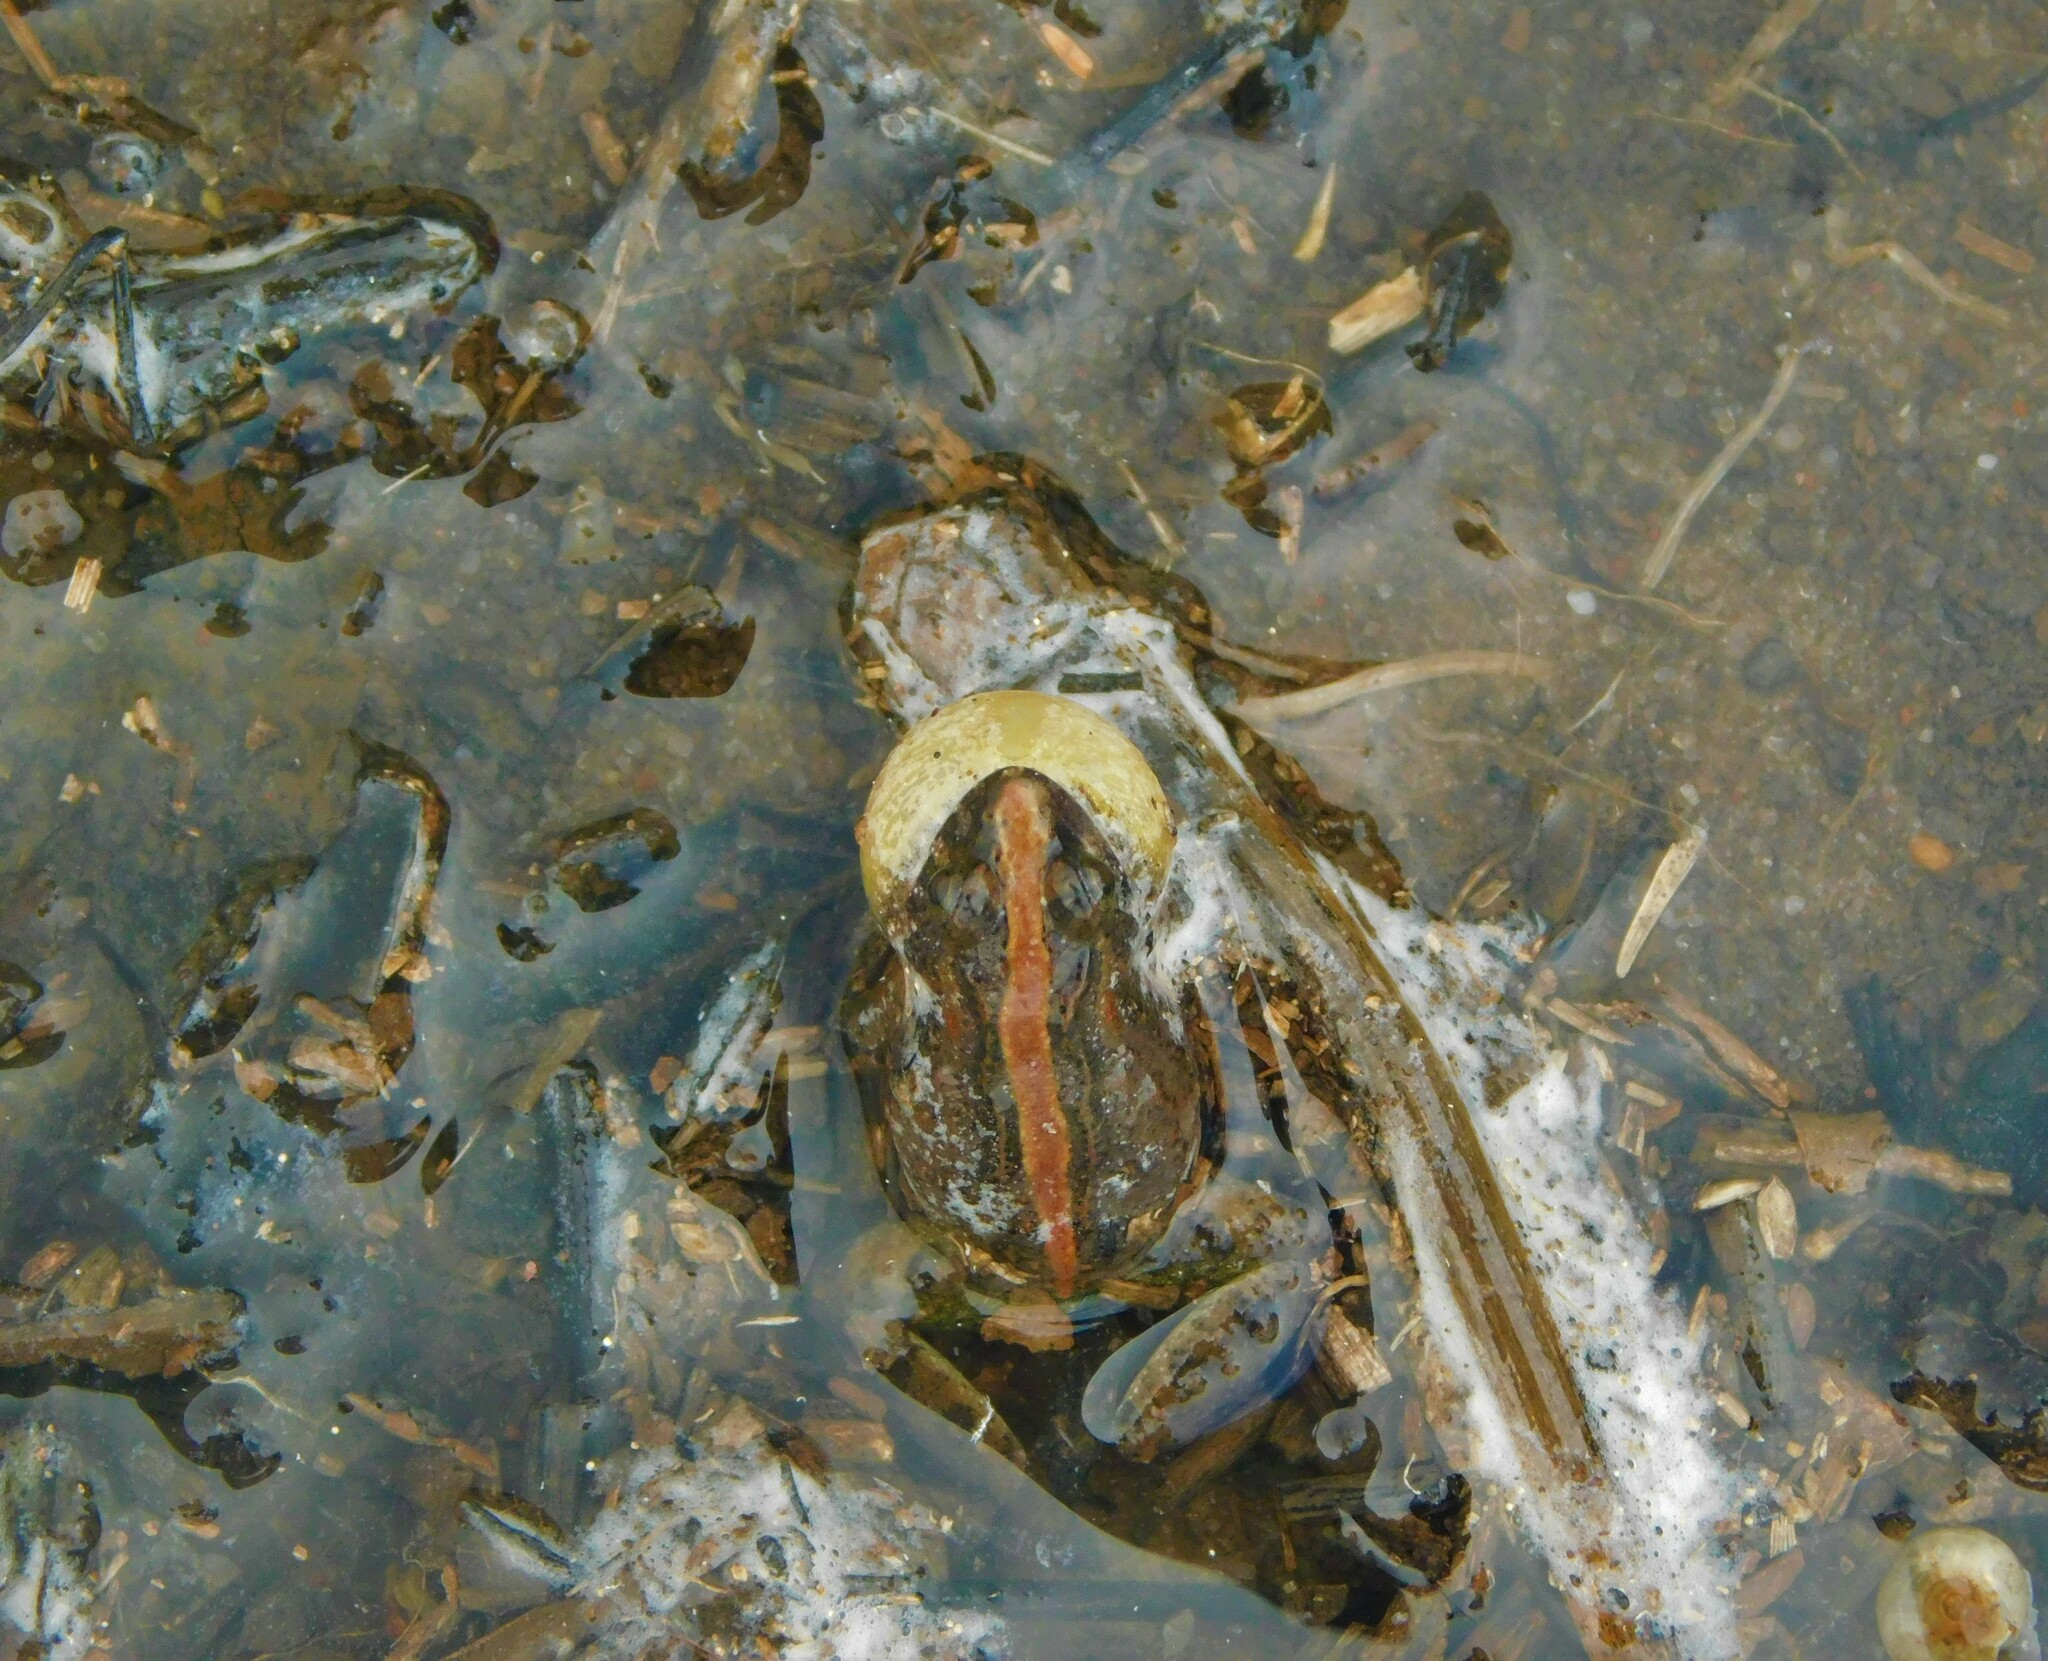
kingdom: Animalia
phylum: Chordata
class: Amphibia
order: Anura
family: Leptodactylidae
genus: Pseudopaludicola
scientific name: Pseudopaludicola falcipes
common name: Hensel’s swamp frog
